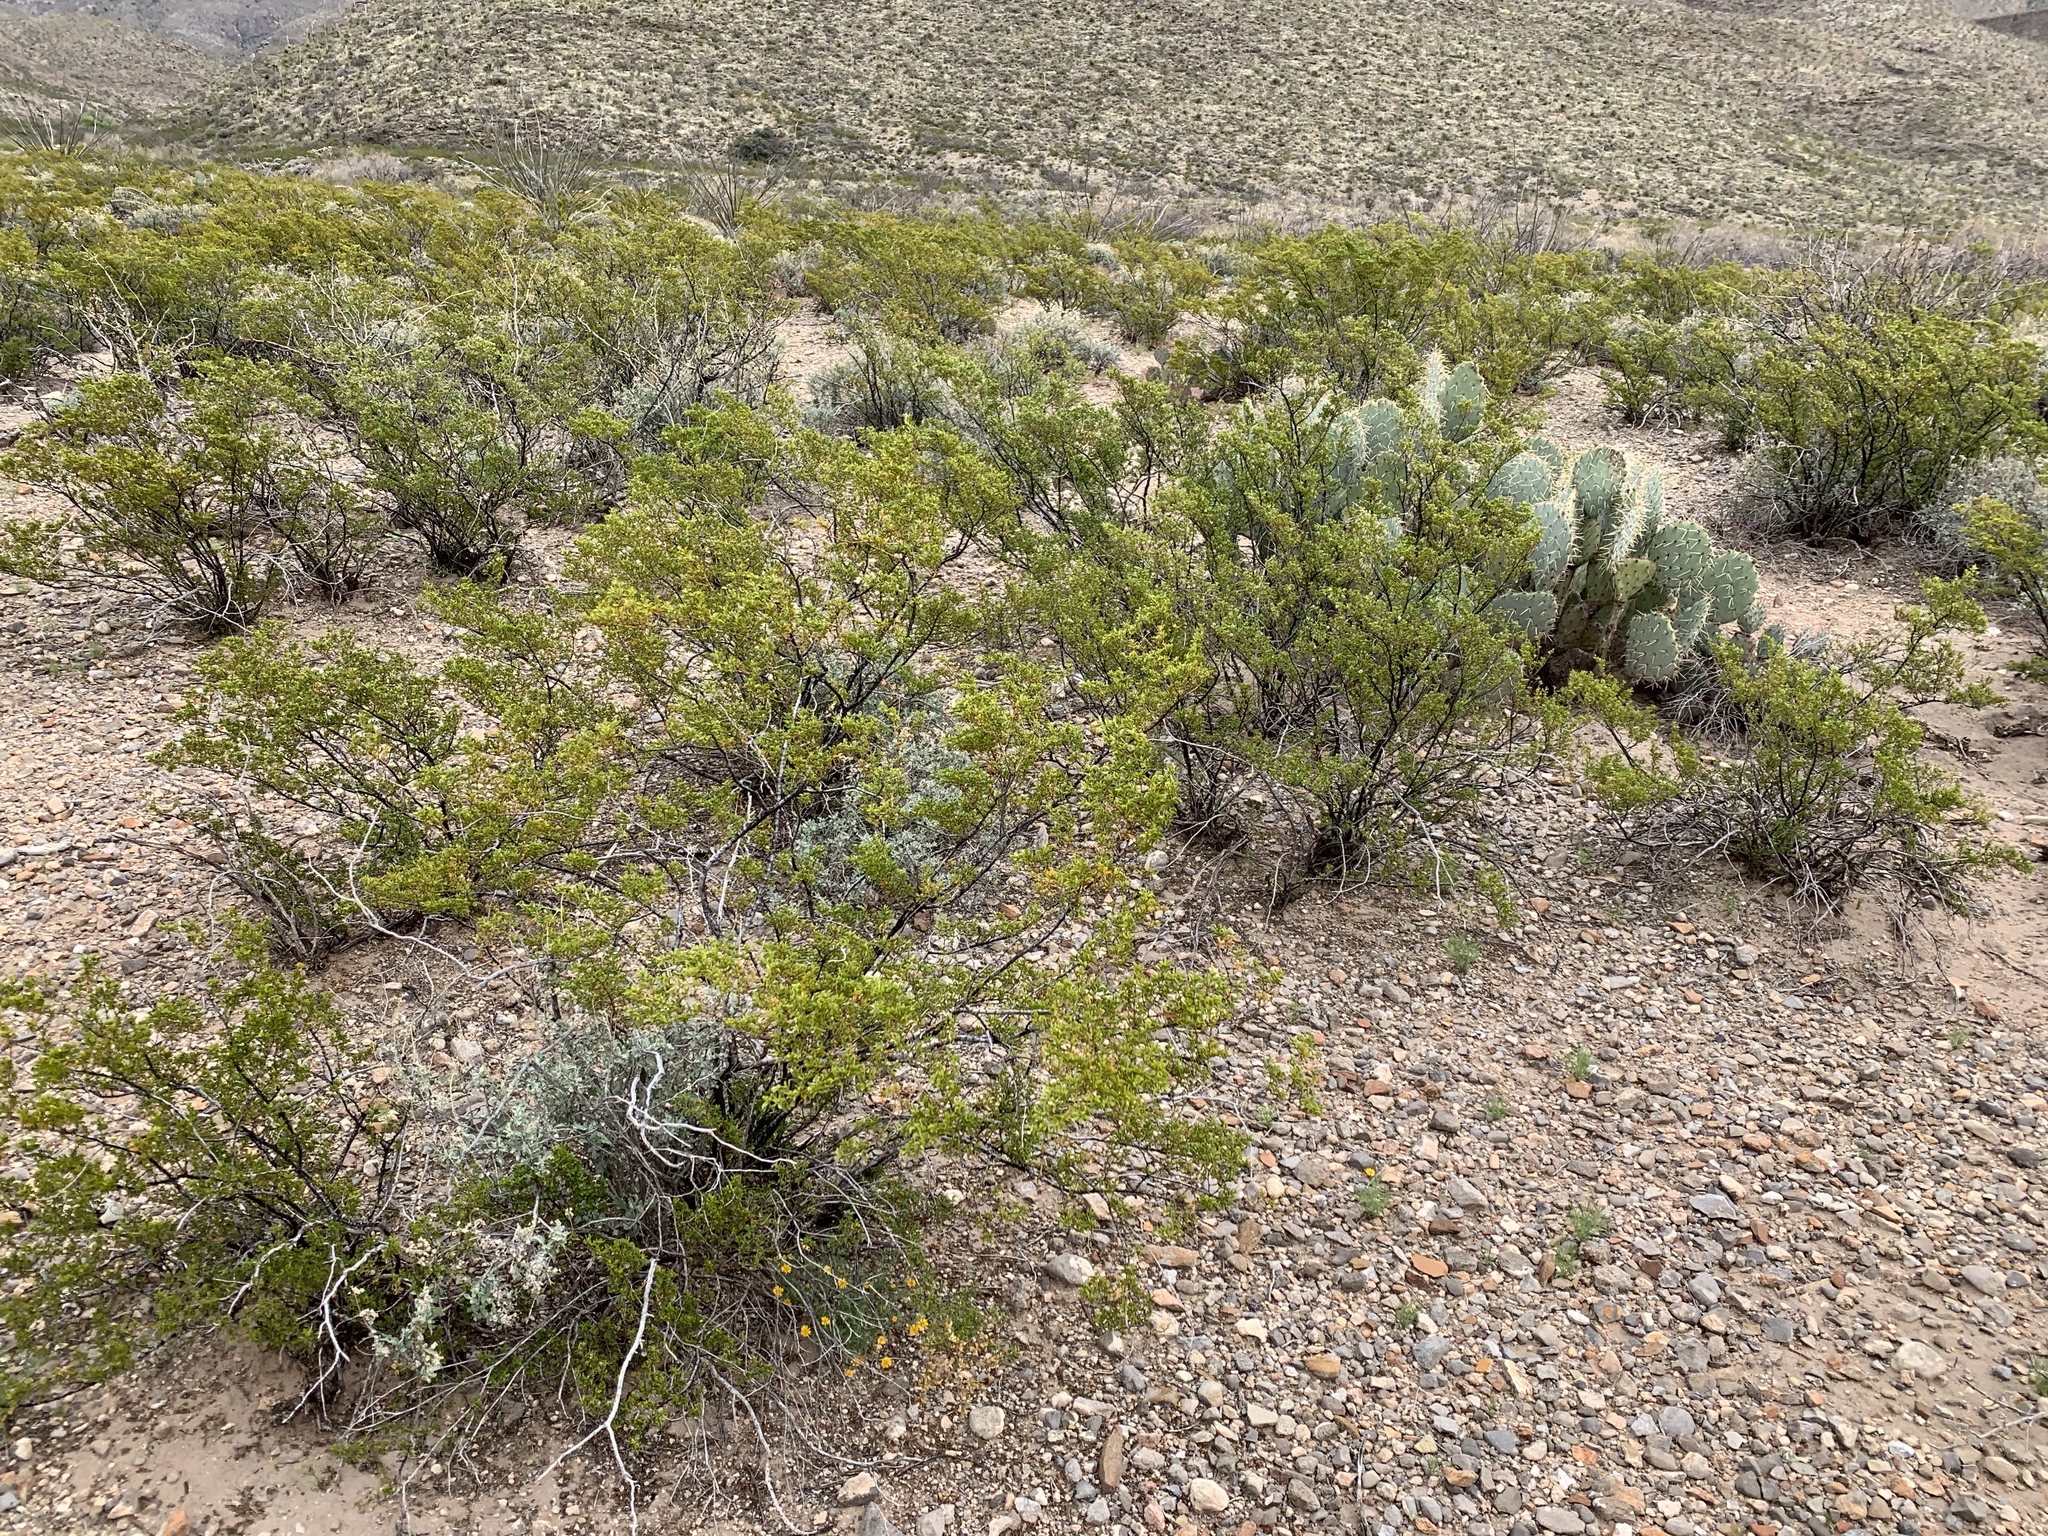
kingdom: Plantae
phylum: Tracheophyta
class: Magnoliopsida
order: Zygophyllales
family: Zygophyllaceae
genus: Larrea
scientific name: Larrea tridentata
